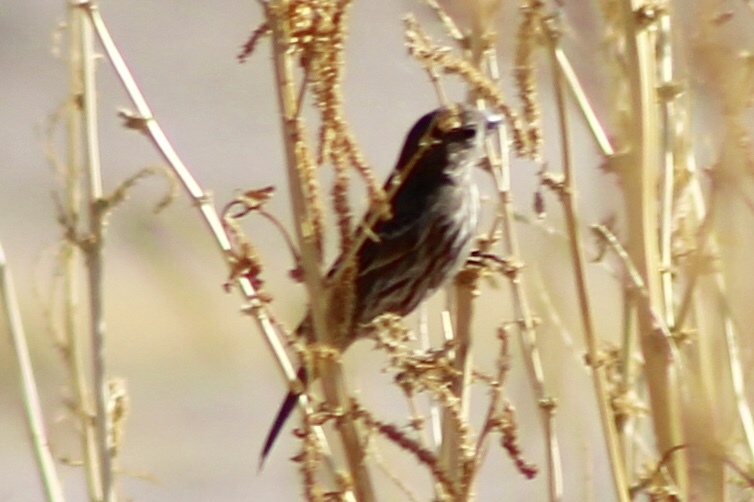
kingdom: Animalia
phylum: Chordata
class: Aves
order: Passeriformes
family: Fringillidae
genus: Haemorhous
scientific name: Haemorhous mexicanus
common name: House finch
